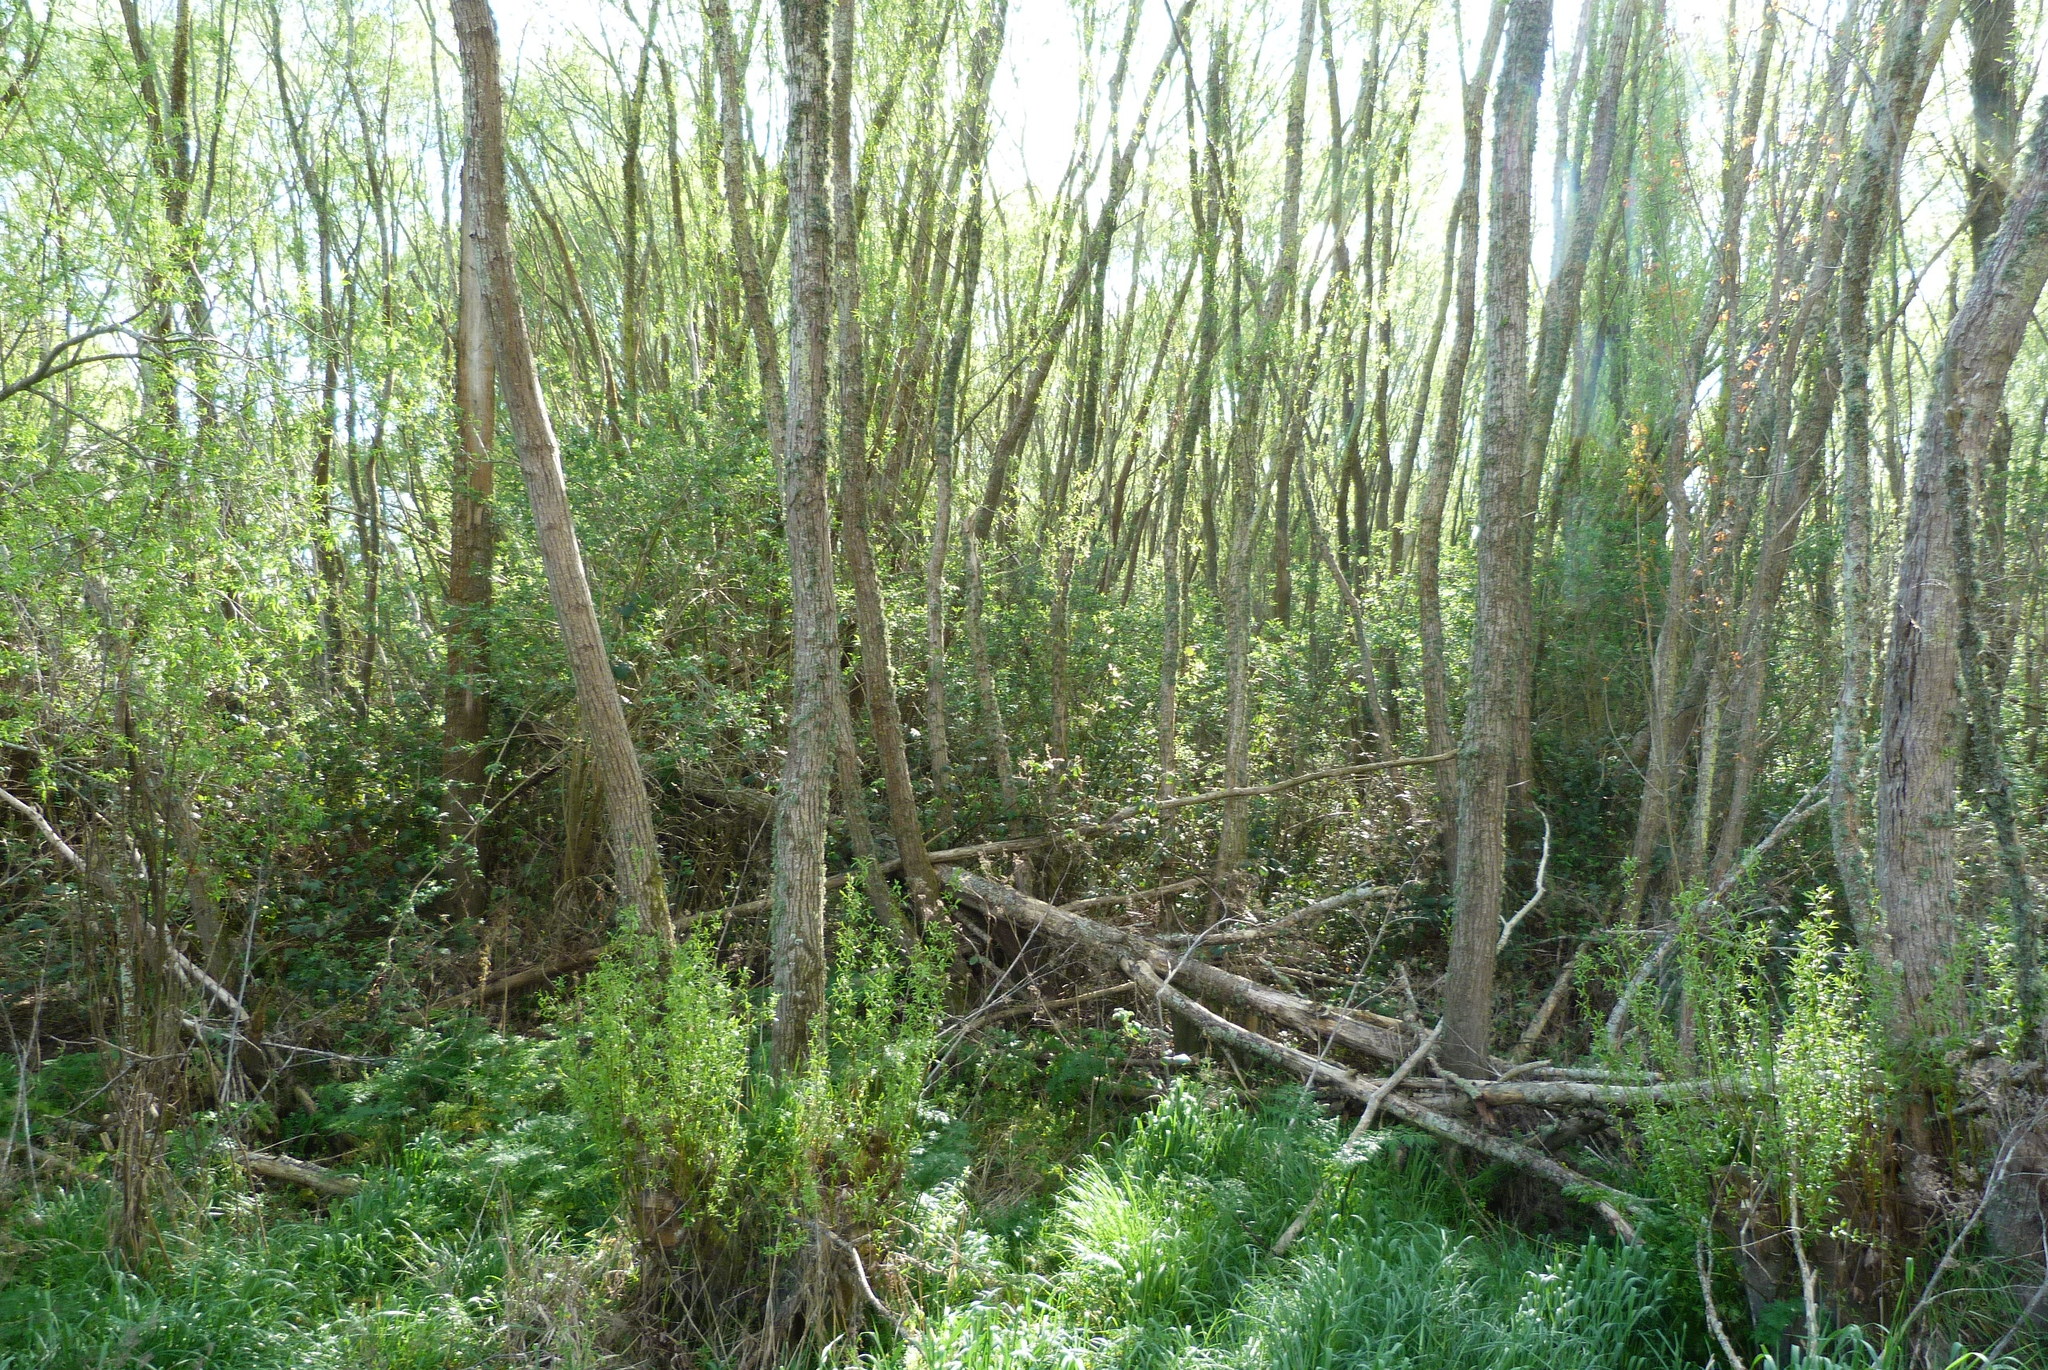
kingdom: Plantae
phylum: Tracheophyta
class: Magnoliopsida
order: Gentianales
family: Rubiaceae
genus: Coprosma
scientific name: Coprosma robusta
